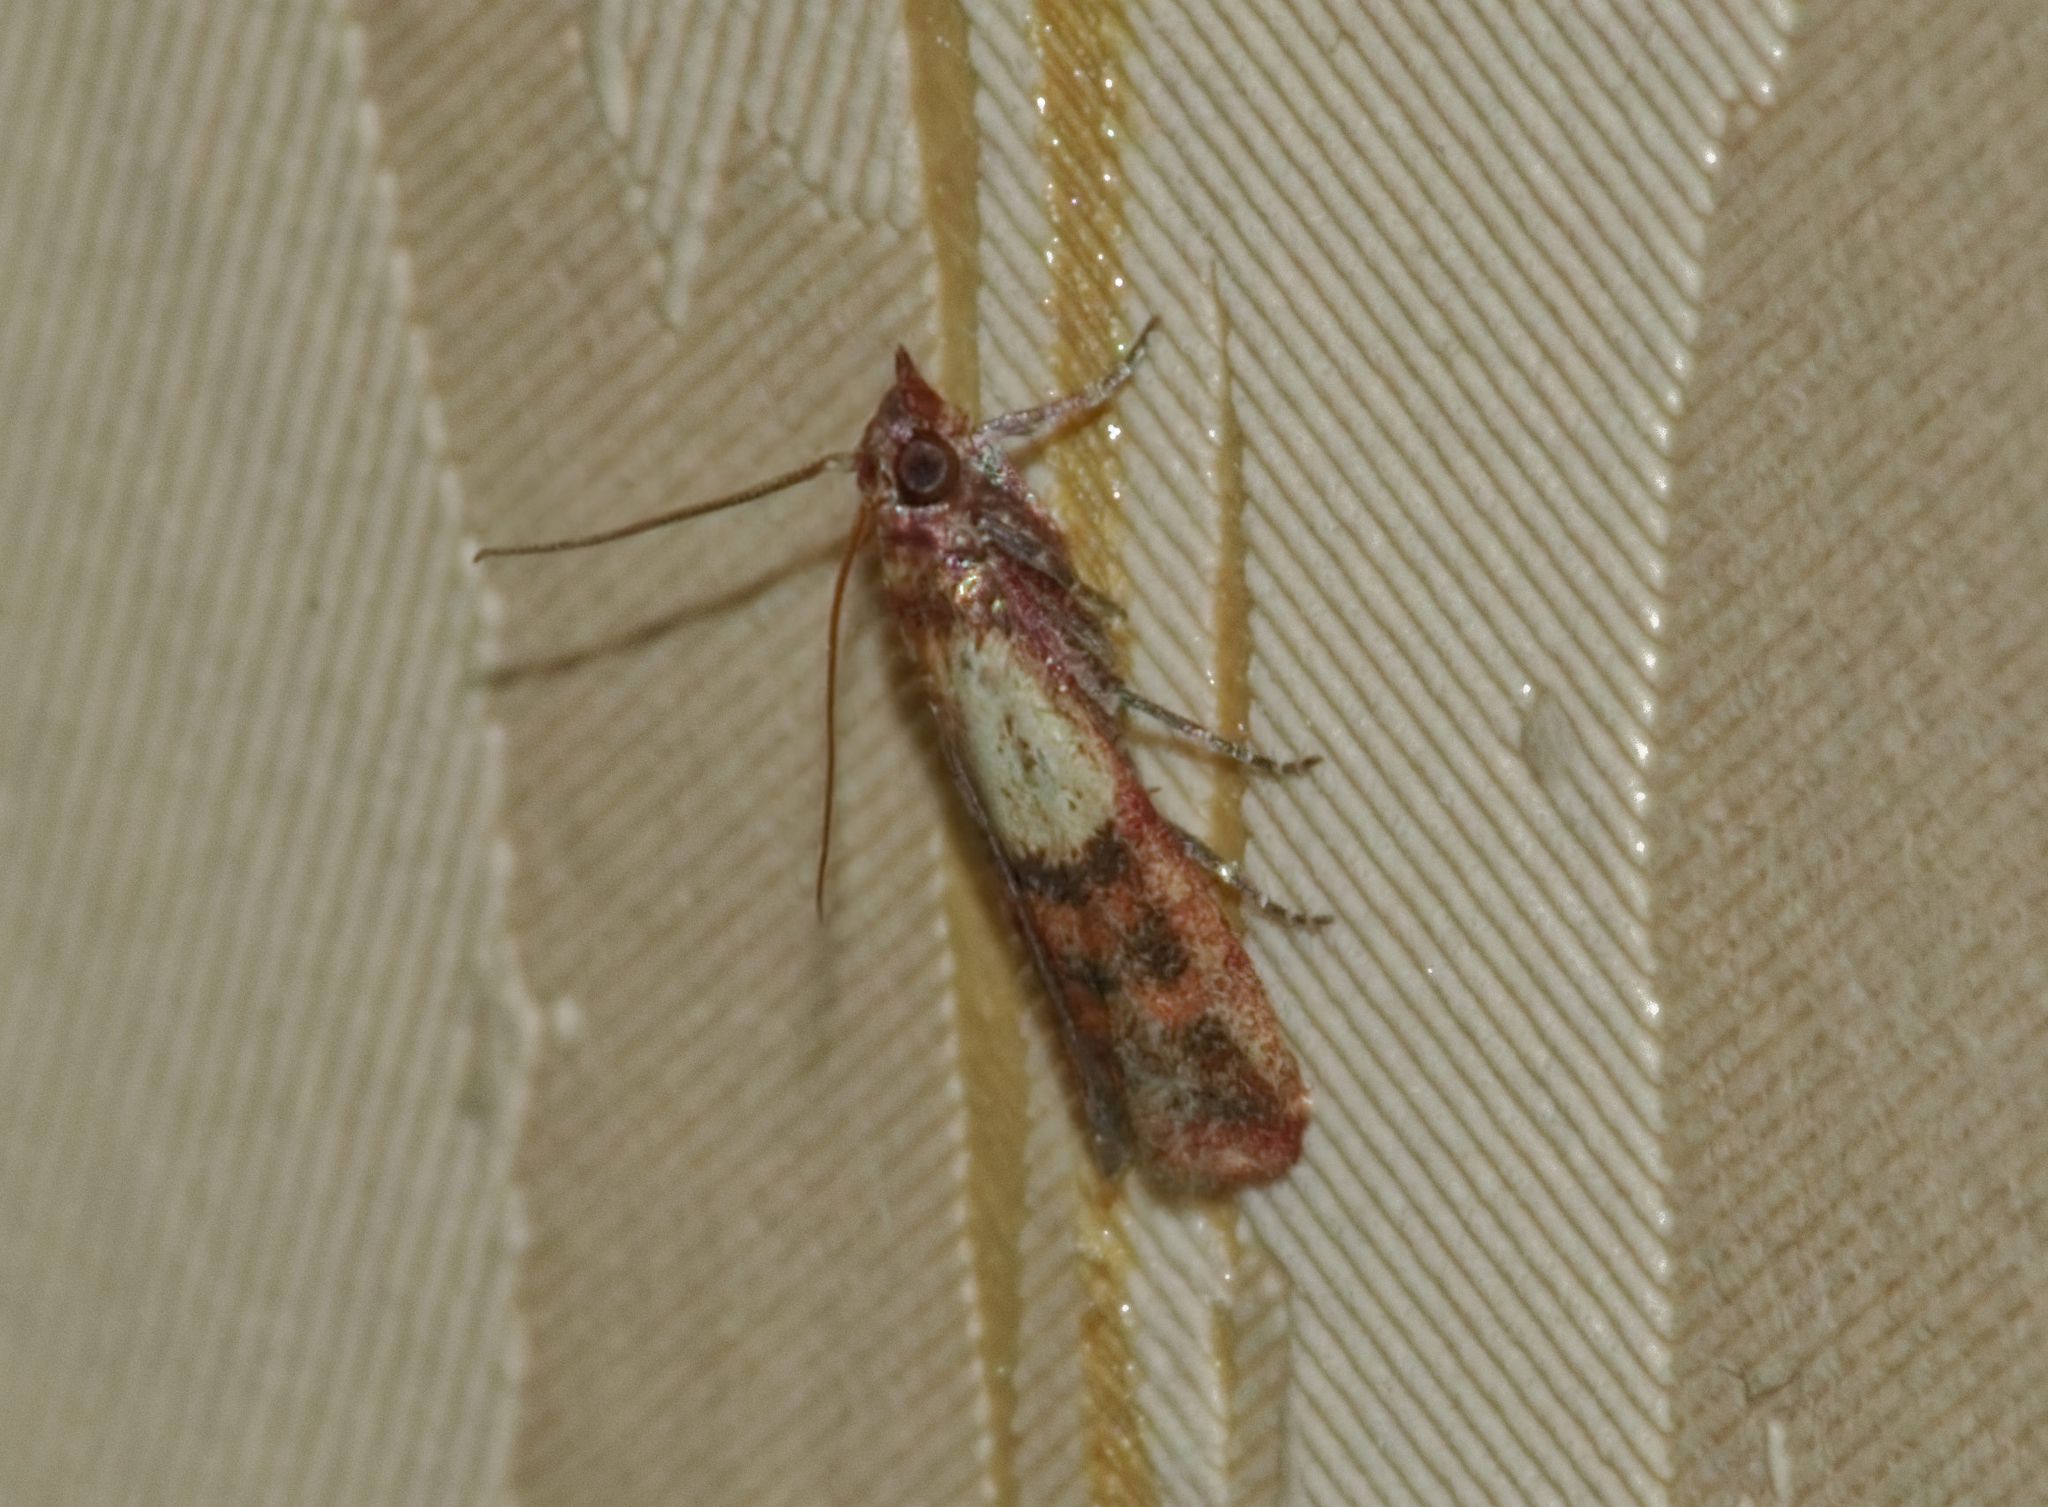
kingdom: Animalia
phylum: Arthropoda
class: Insecta
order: Lepidoptera
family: Pyralidae
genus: Plodia
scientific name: Plodia interpunctella
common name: Indian meal moth
